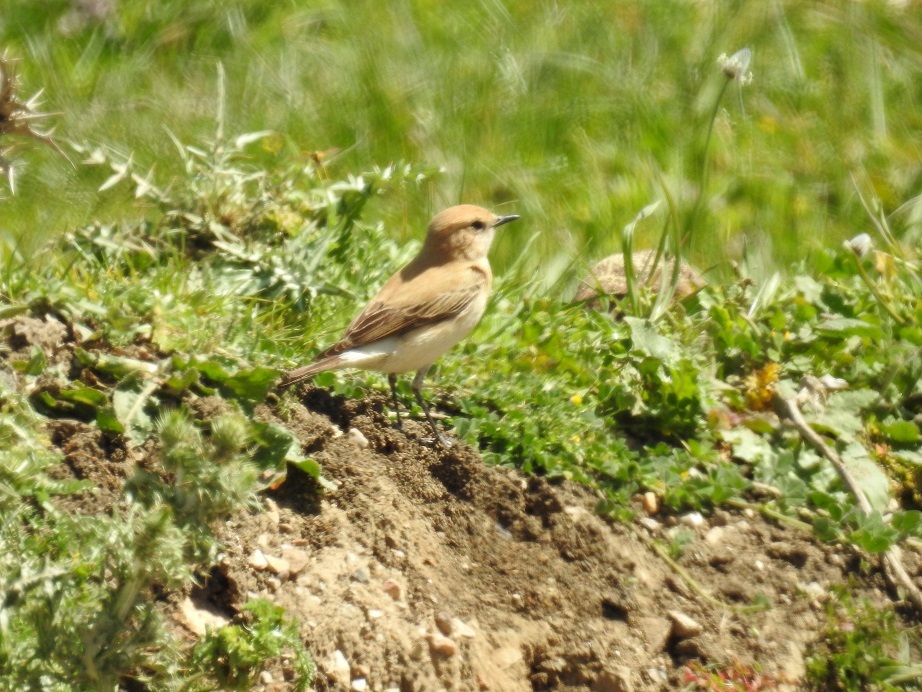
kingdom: Animalia
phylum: Chordata
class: Aves
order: Passeriformes
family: Muscicapidae
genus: Oenanthe
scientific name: Oenanthe hispanica
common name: Black-eared wheatear
